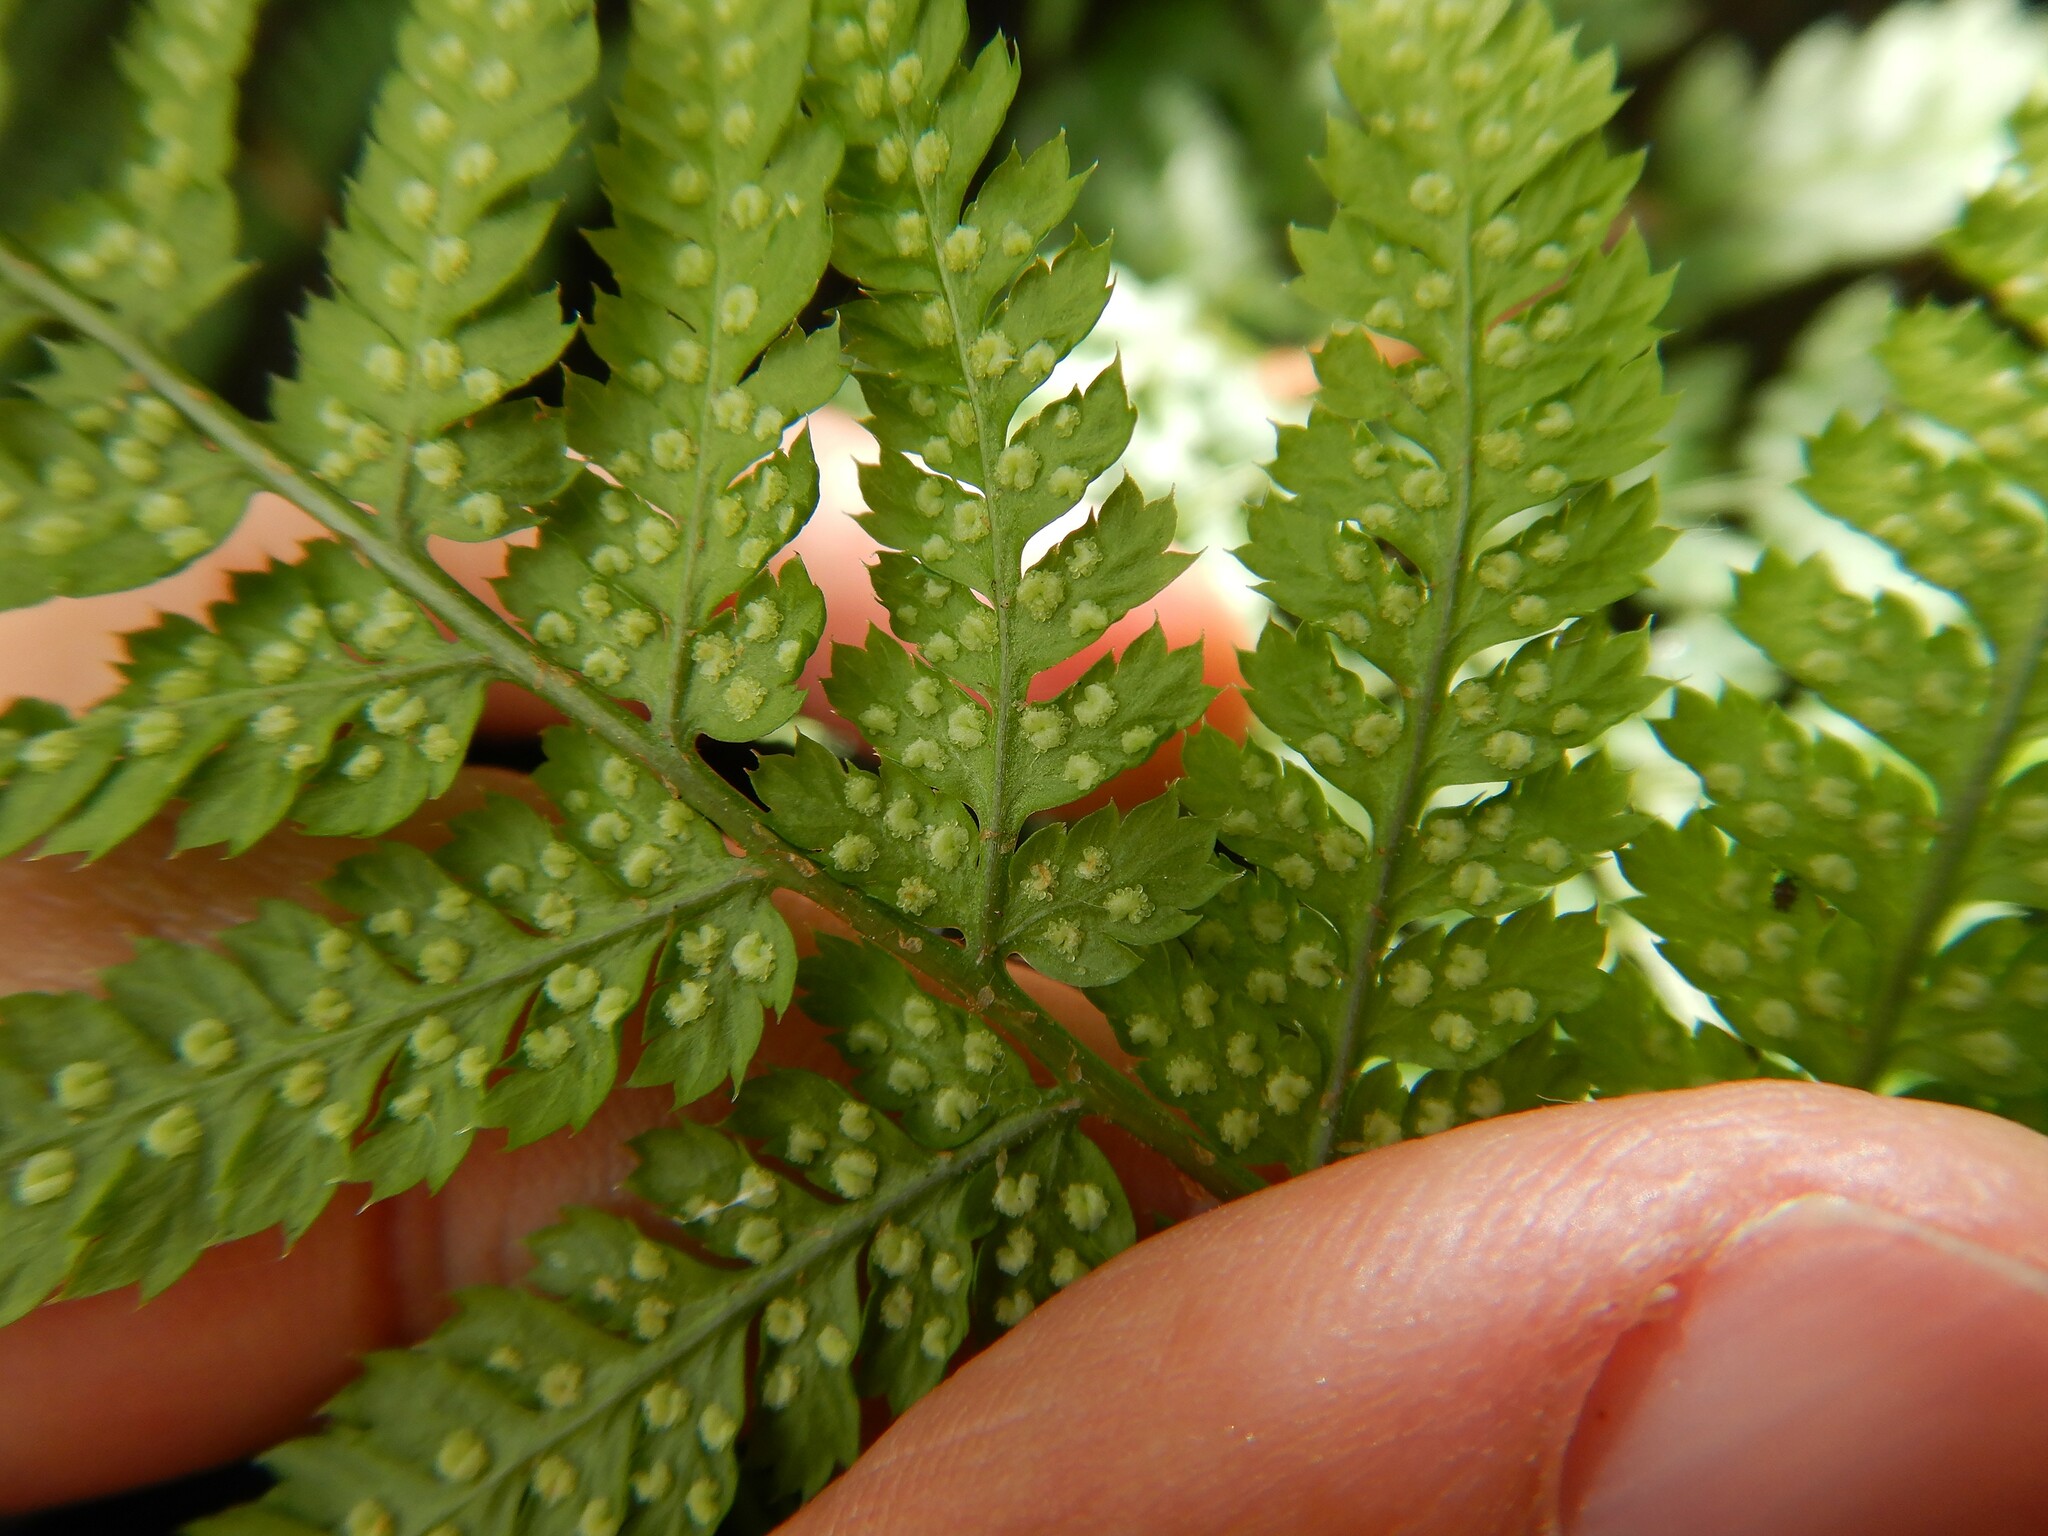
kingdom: Plantae
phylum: Tracheophyta
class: Polypodiopsida
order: Polypodiales
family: Dryopteridaceae
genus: Dryopteris
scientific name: Dryopteris dilatata
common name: Broad buckler-fern
